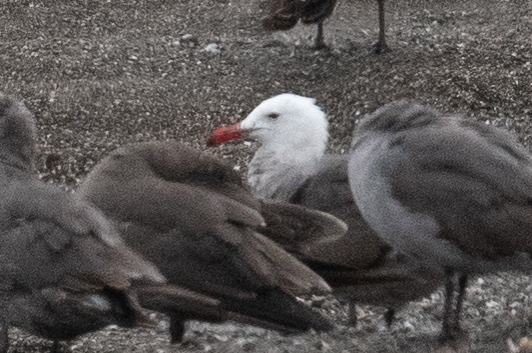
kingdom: Animalia
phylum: Chordata
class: Aves
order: Charadriiformes
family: Laridae
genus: Larus
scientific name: Larus heermanni
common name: Heermann's gull
